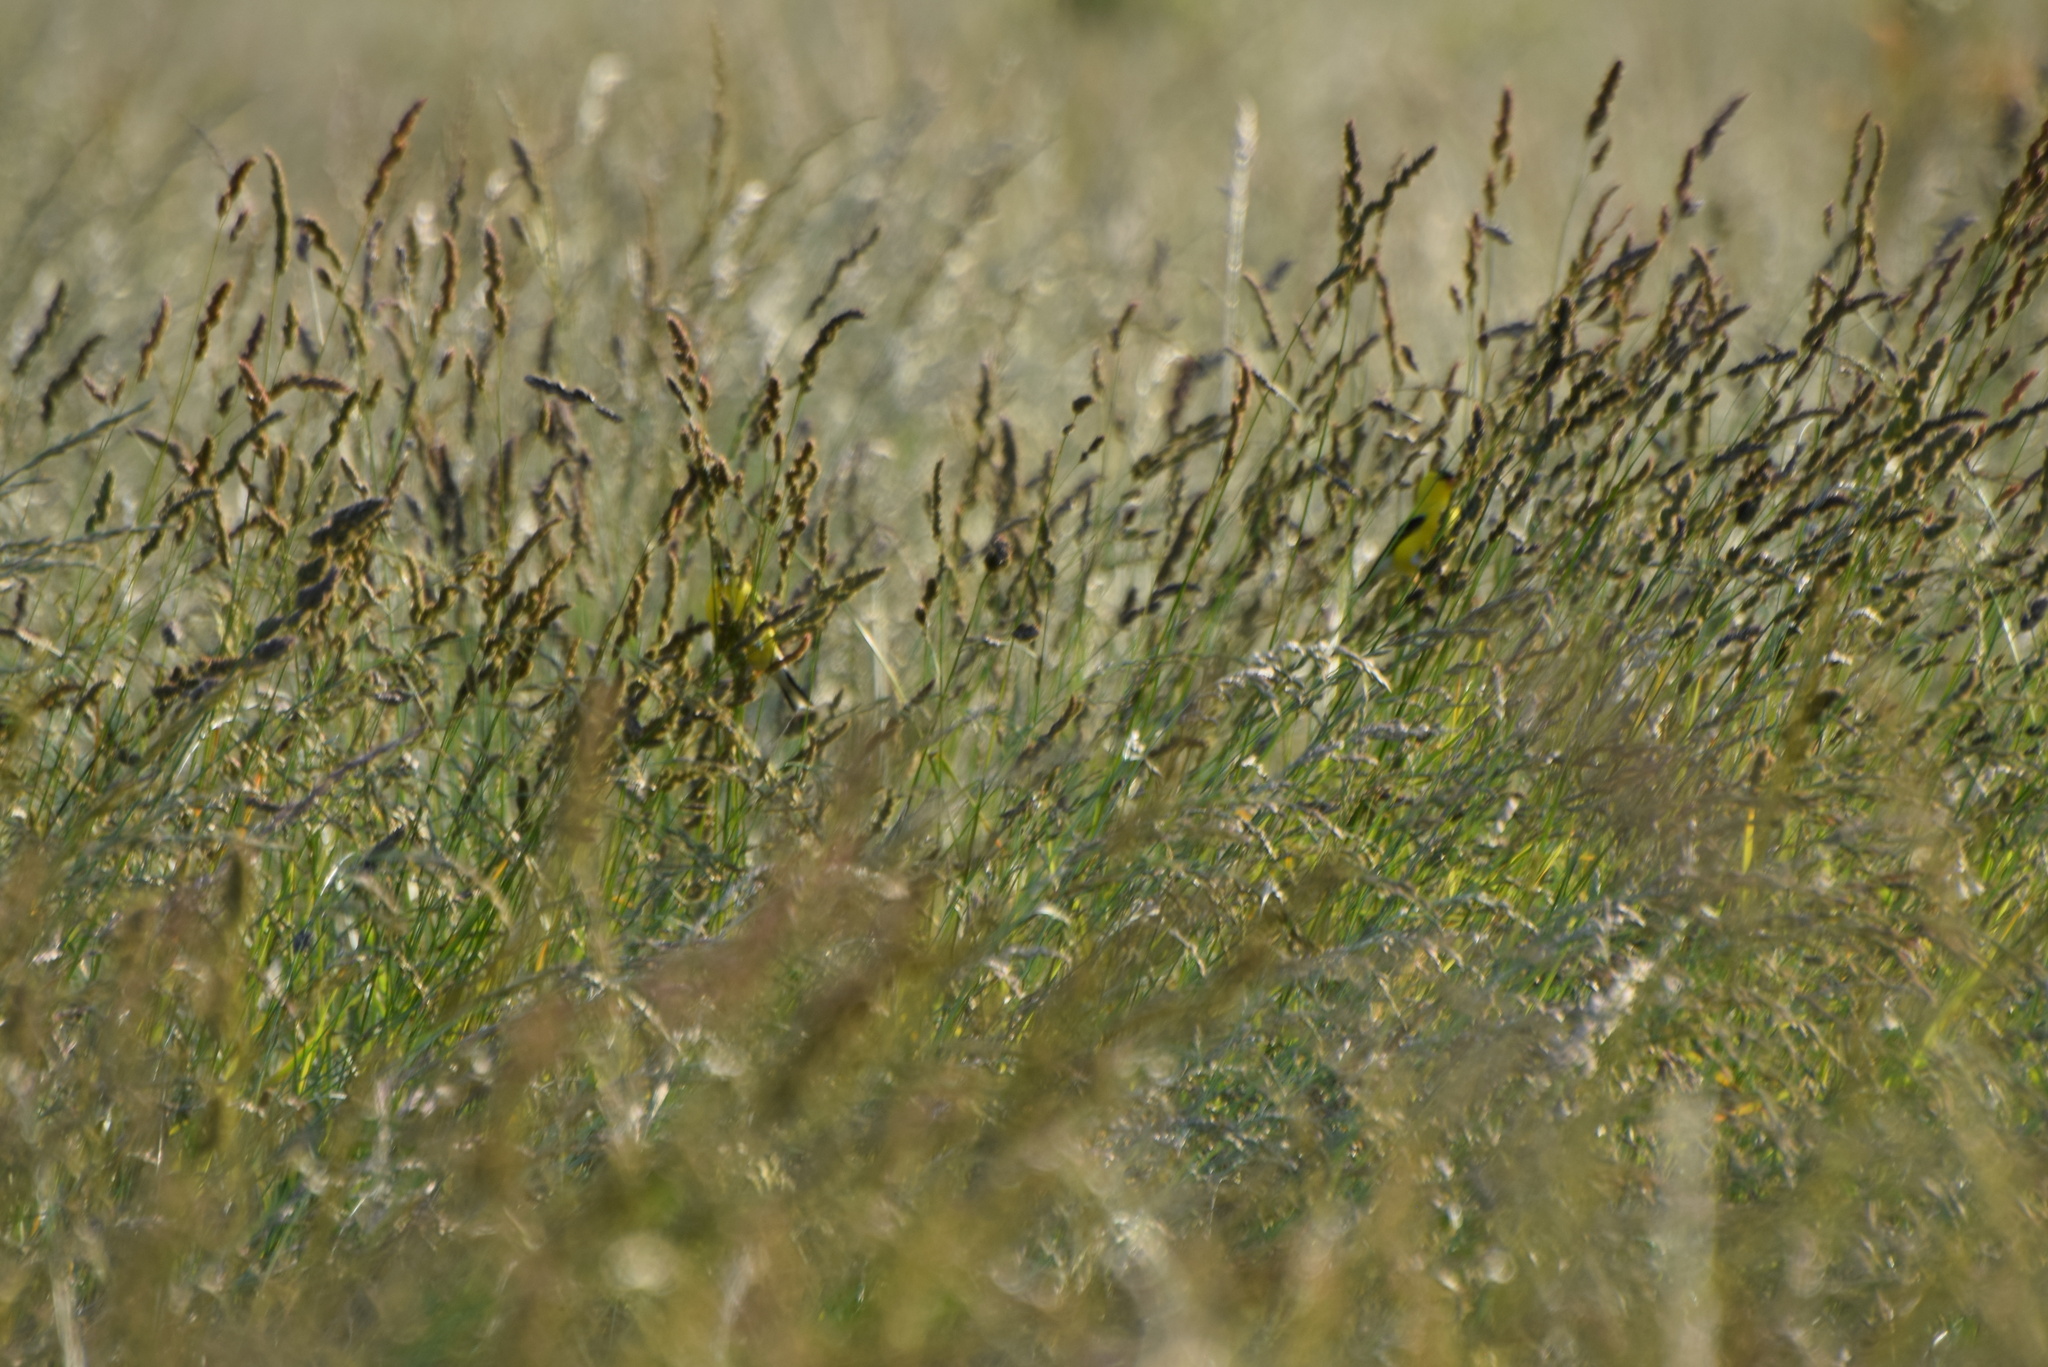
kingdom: Animalia
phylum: Chordata
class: Aves
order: Passeriformes
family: Fringillidae
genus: Spinus
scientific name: Spinus tristis
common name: American goldfinch
